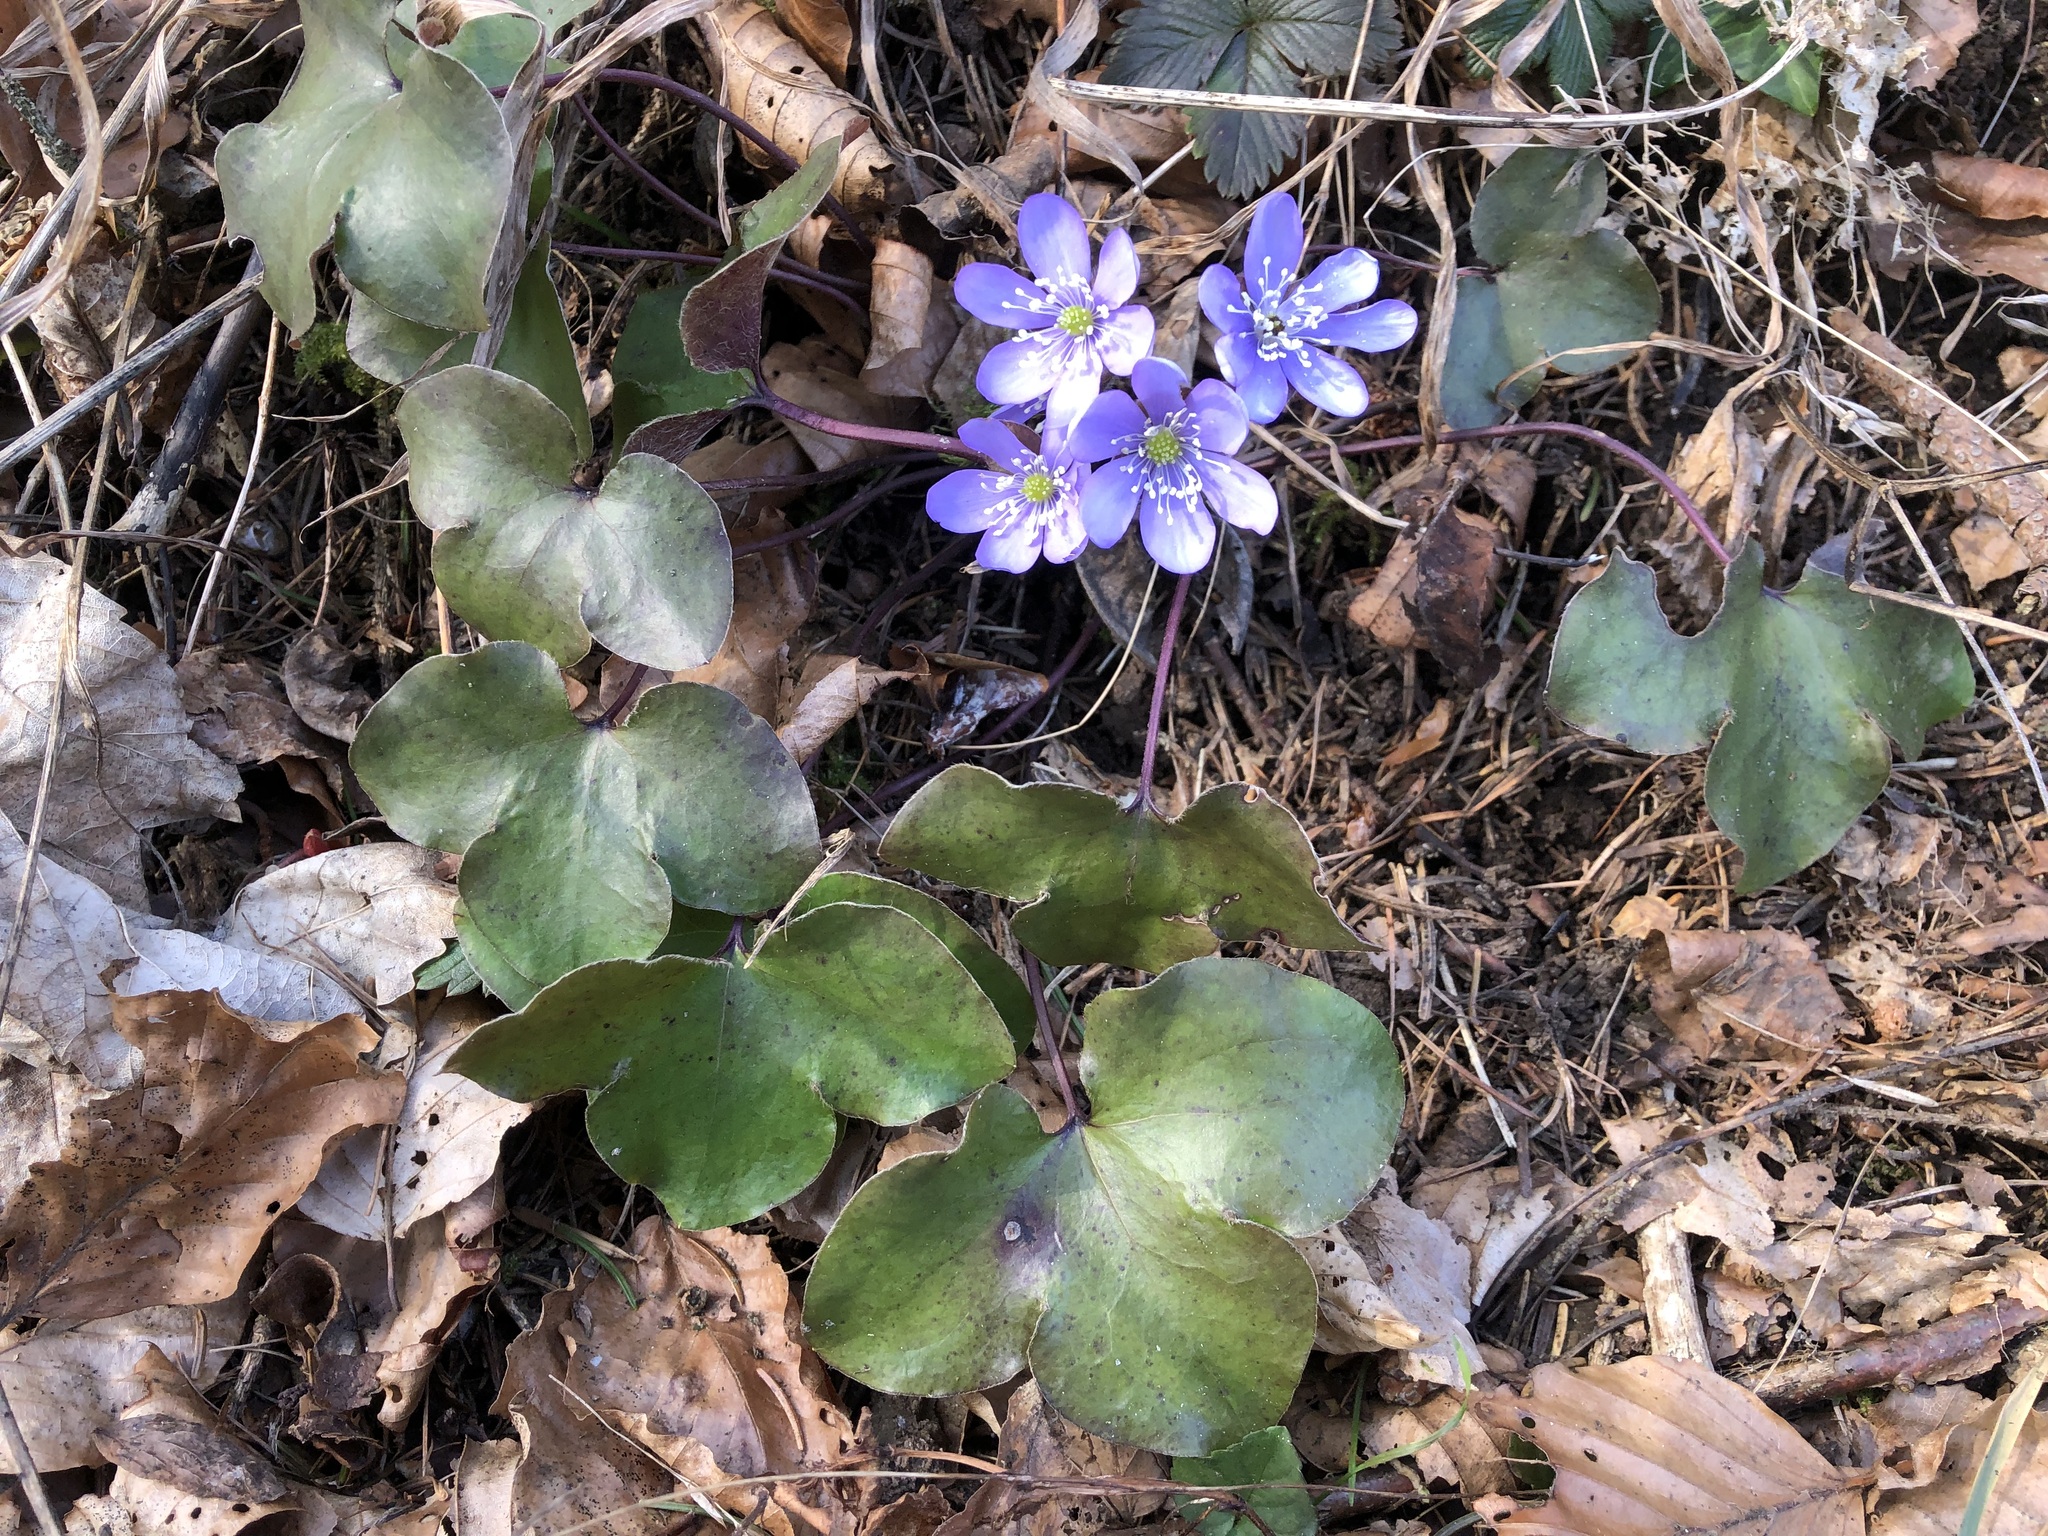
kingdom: Plantae
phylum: Tracheophyta
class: Magnoliopsida
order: Ranunculales
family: Ranunculaceae
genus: Hepatica
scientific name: Hepatica nobilis
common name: Liverleaf
